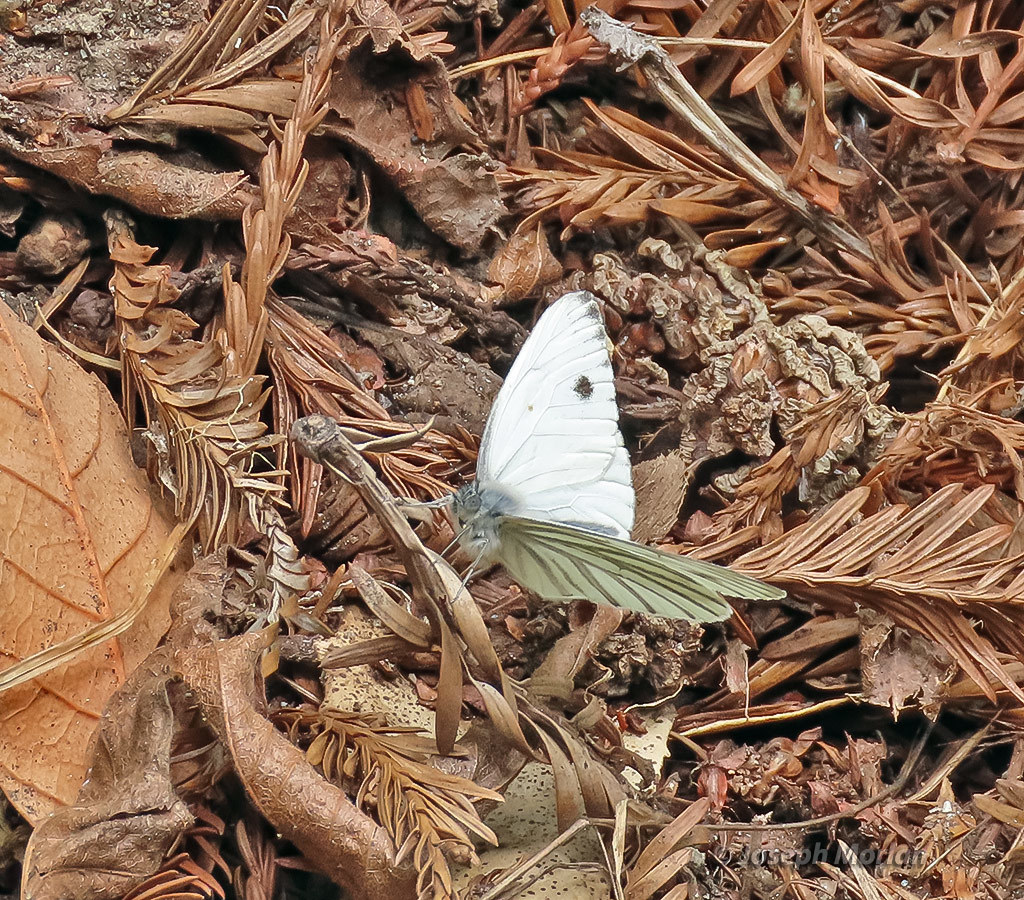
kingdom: Animalia
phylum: Arthropoda
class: Insecta
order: Lepidoptera
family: Pieridae
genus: Pieris
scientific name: Pieris marginalis
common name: Margined white
